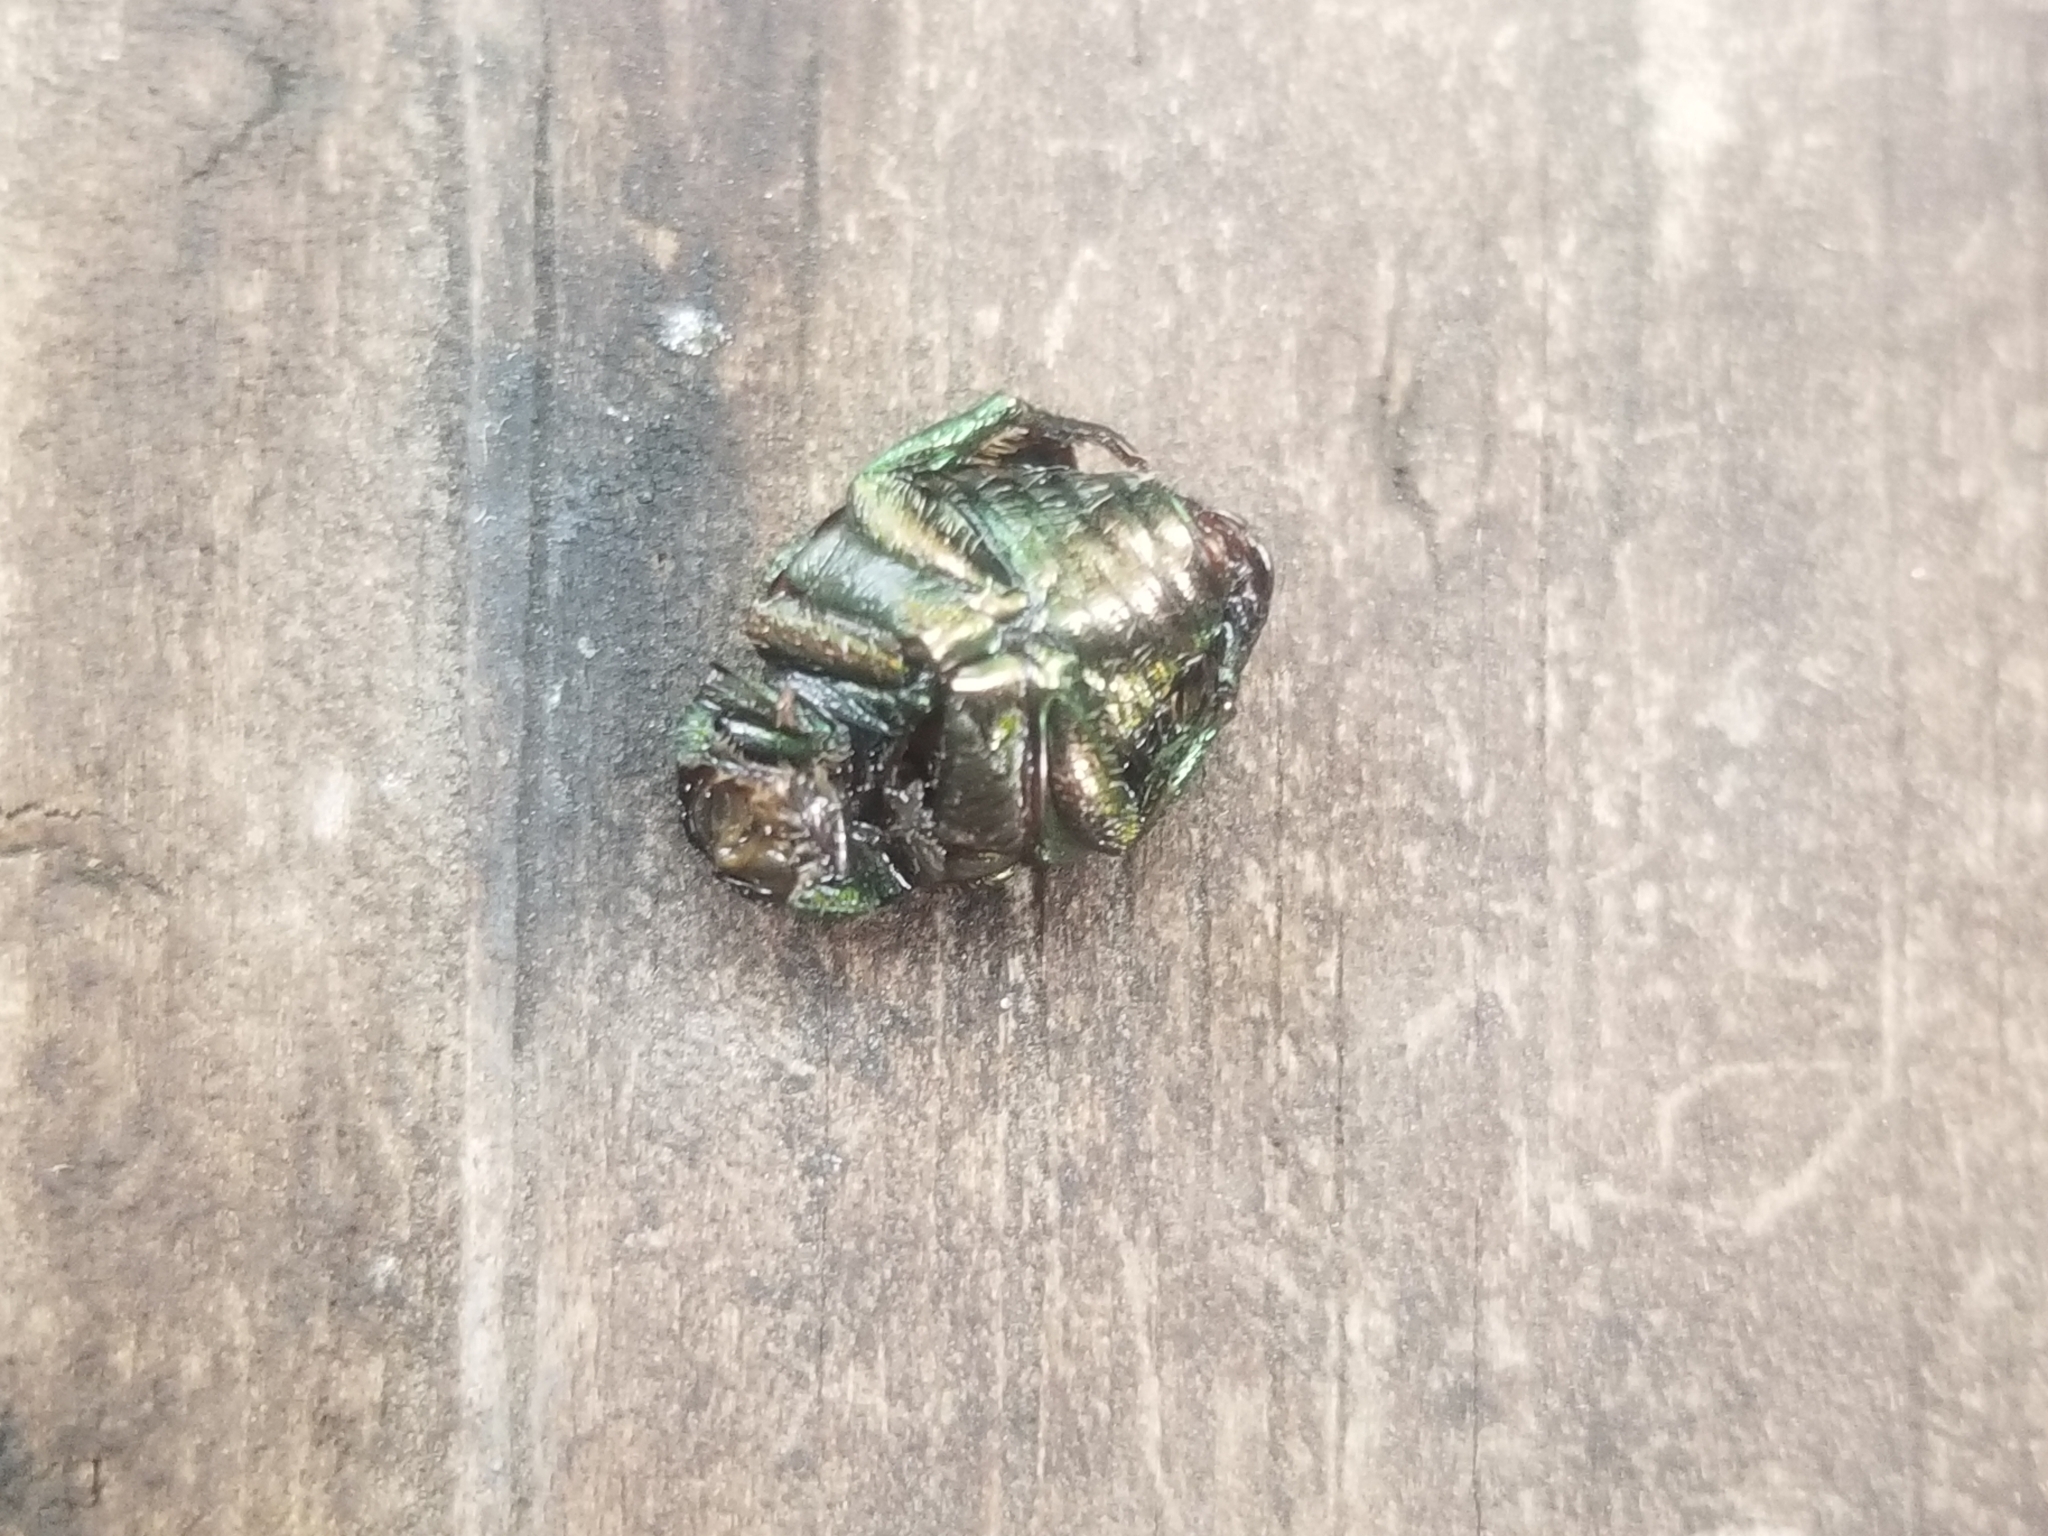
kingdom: Animalia
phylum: Arthropoda
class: Insecta
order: Coleoptera
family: Scarabaeidae
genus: Popillia
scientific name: Popillia japonica
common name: Japanese beetle
